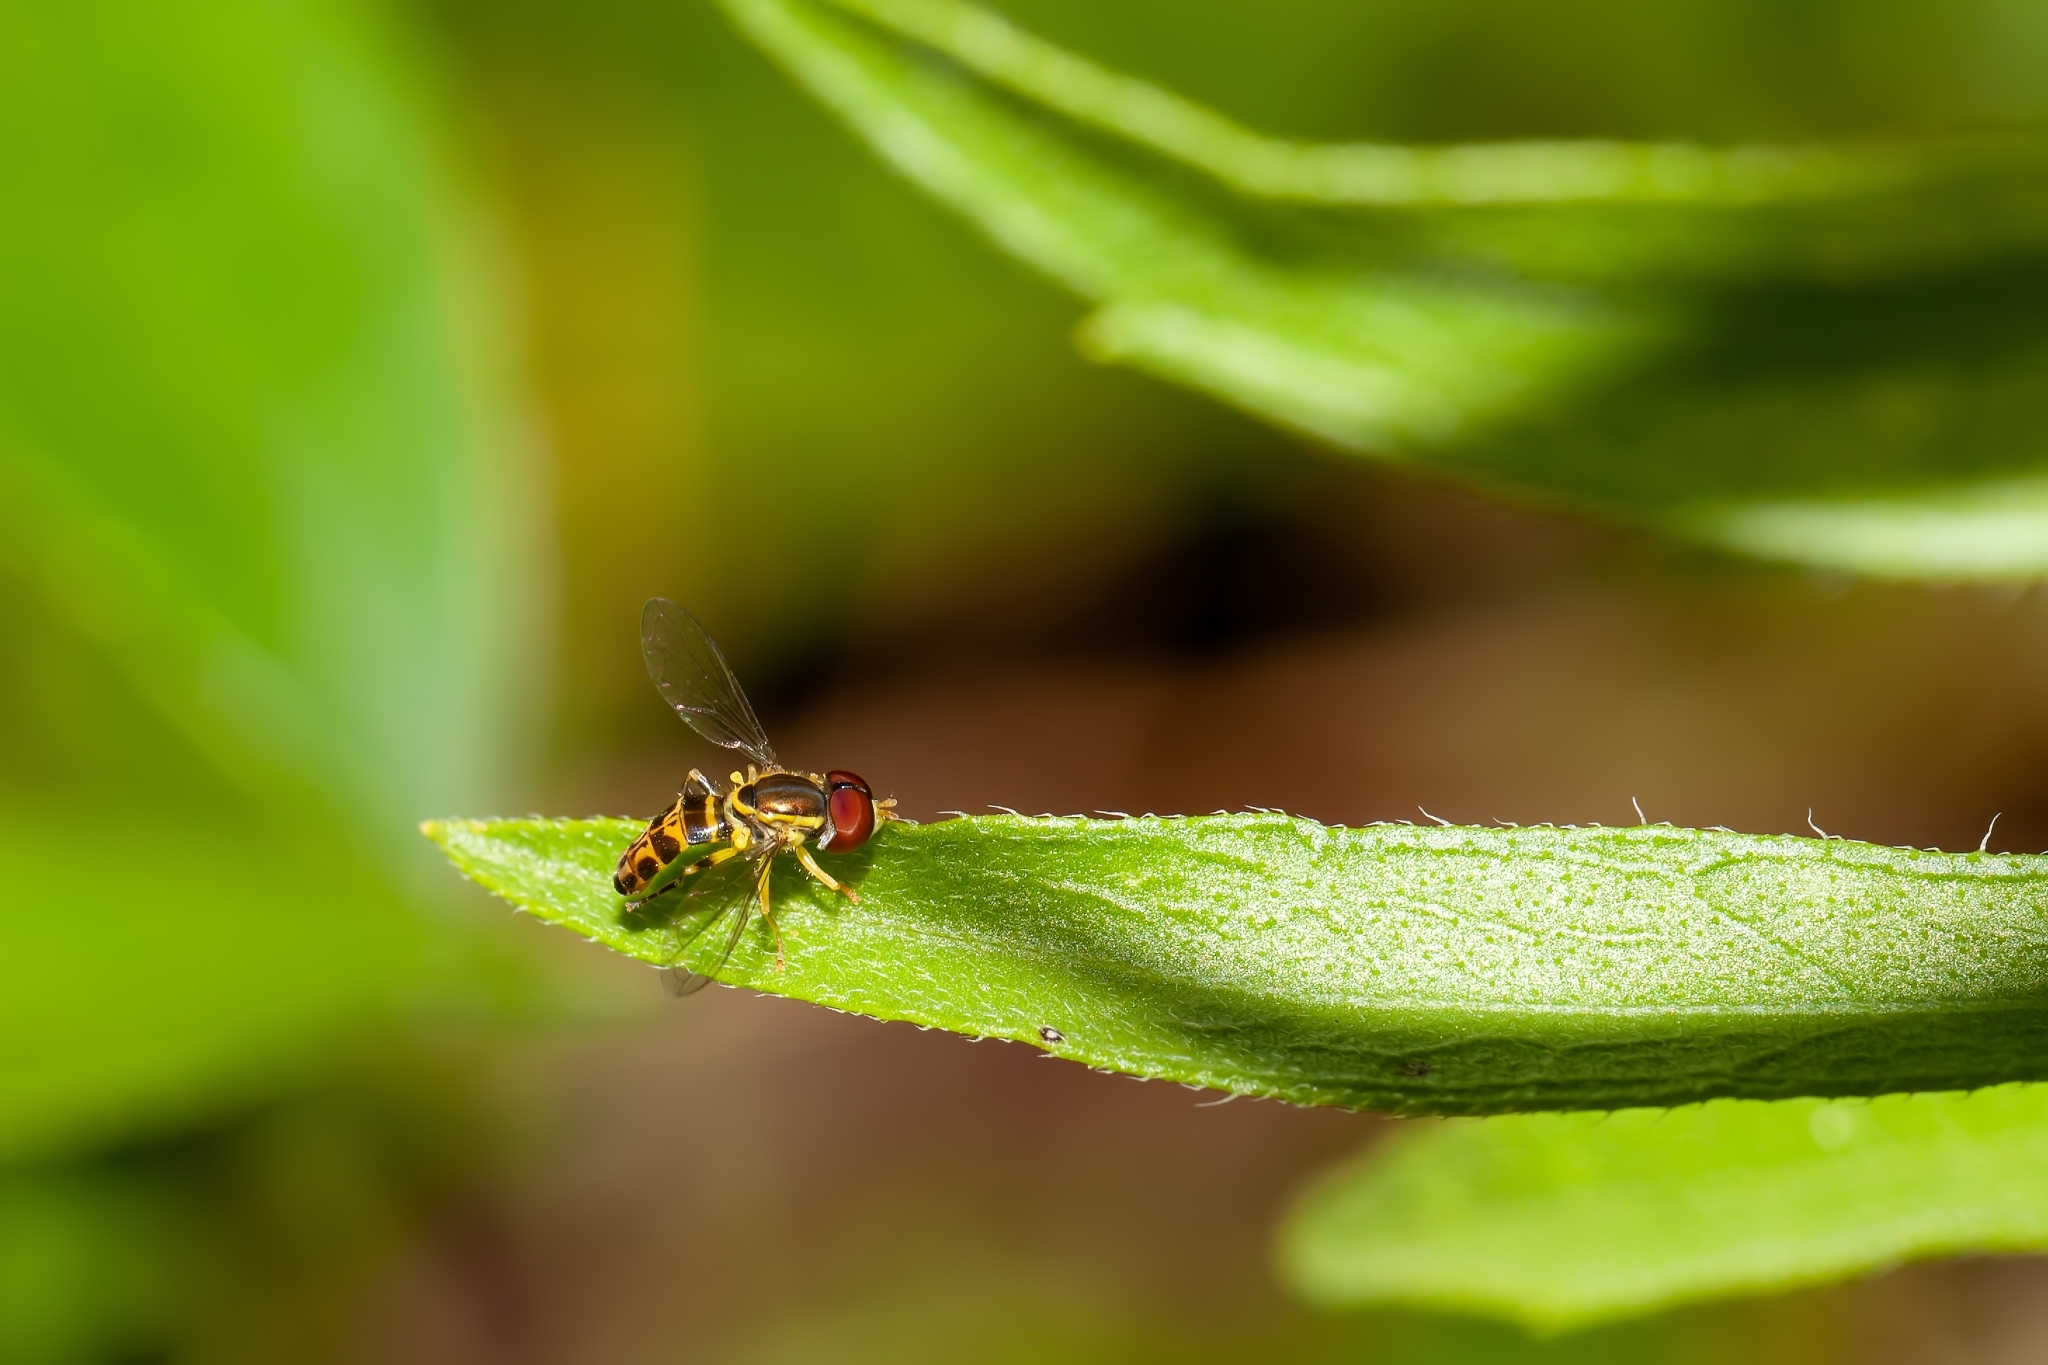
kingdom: Animalia
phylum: Arthropoda
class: Insecta
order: Diptera
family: Syrphidae
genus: Toxomerus
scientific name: Toxomerus parvulus
